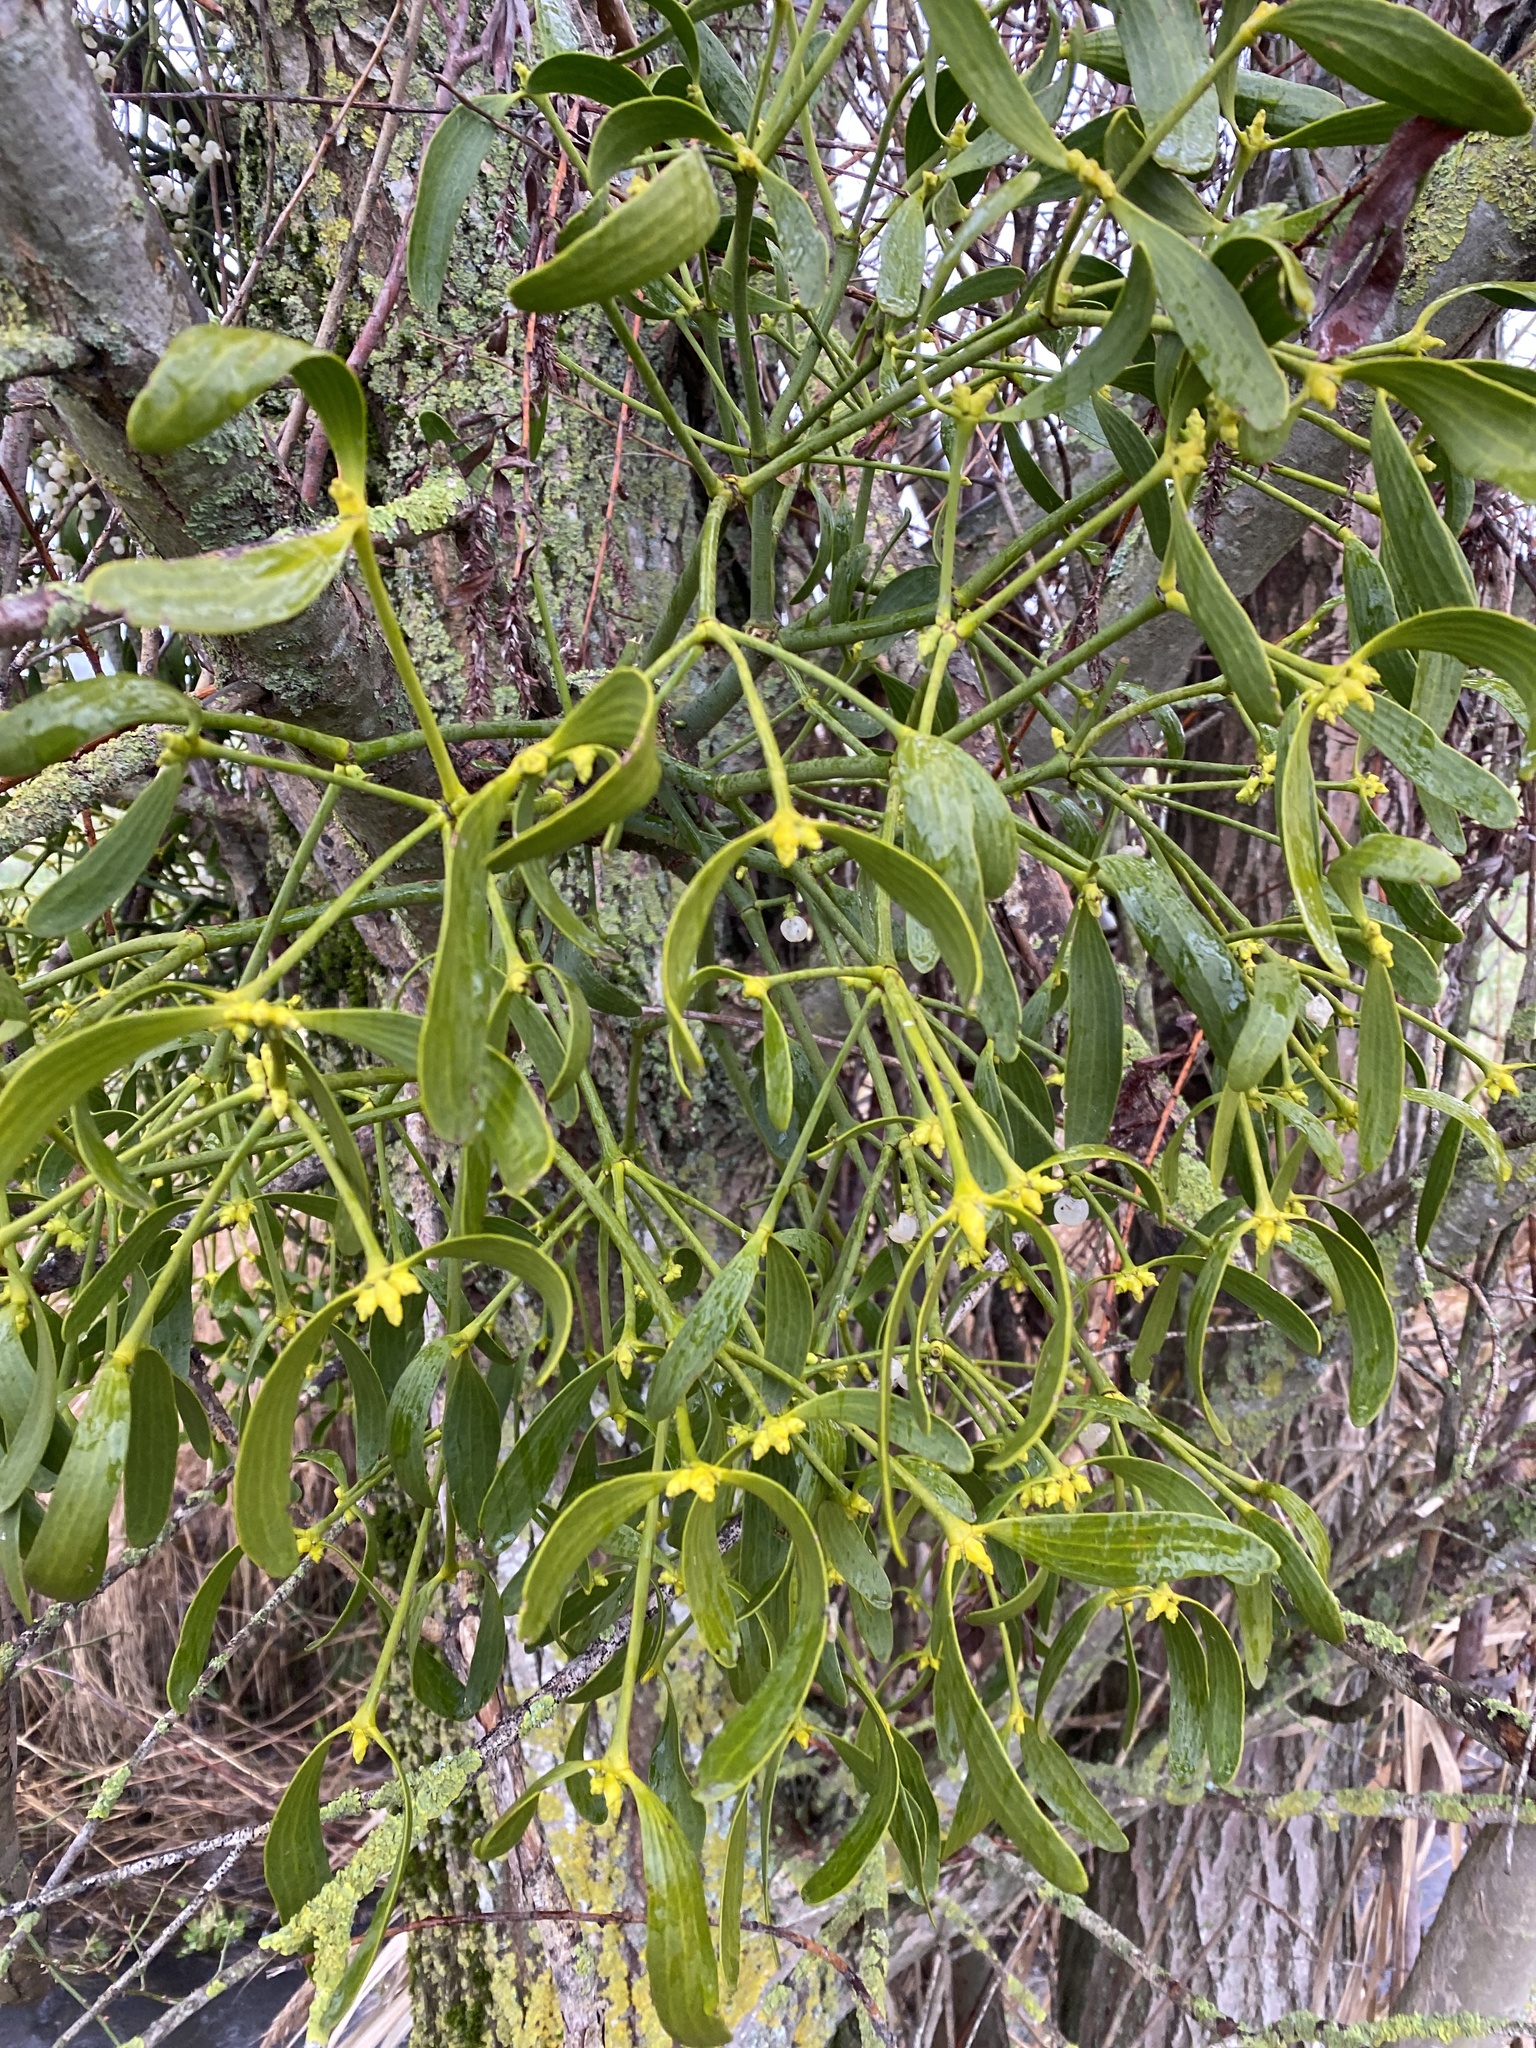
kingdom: Plantae
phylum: Tracheophyta
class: Magnoliopsida
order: Santalales
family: Viscaceae
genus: Viscum
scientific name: Viscum album
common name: Mistletoe
